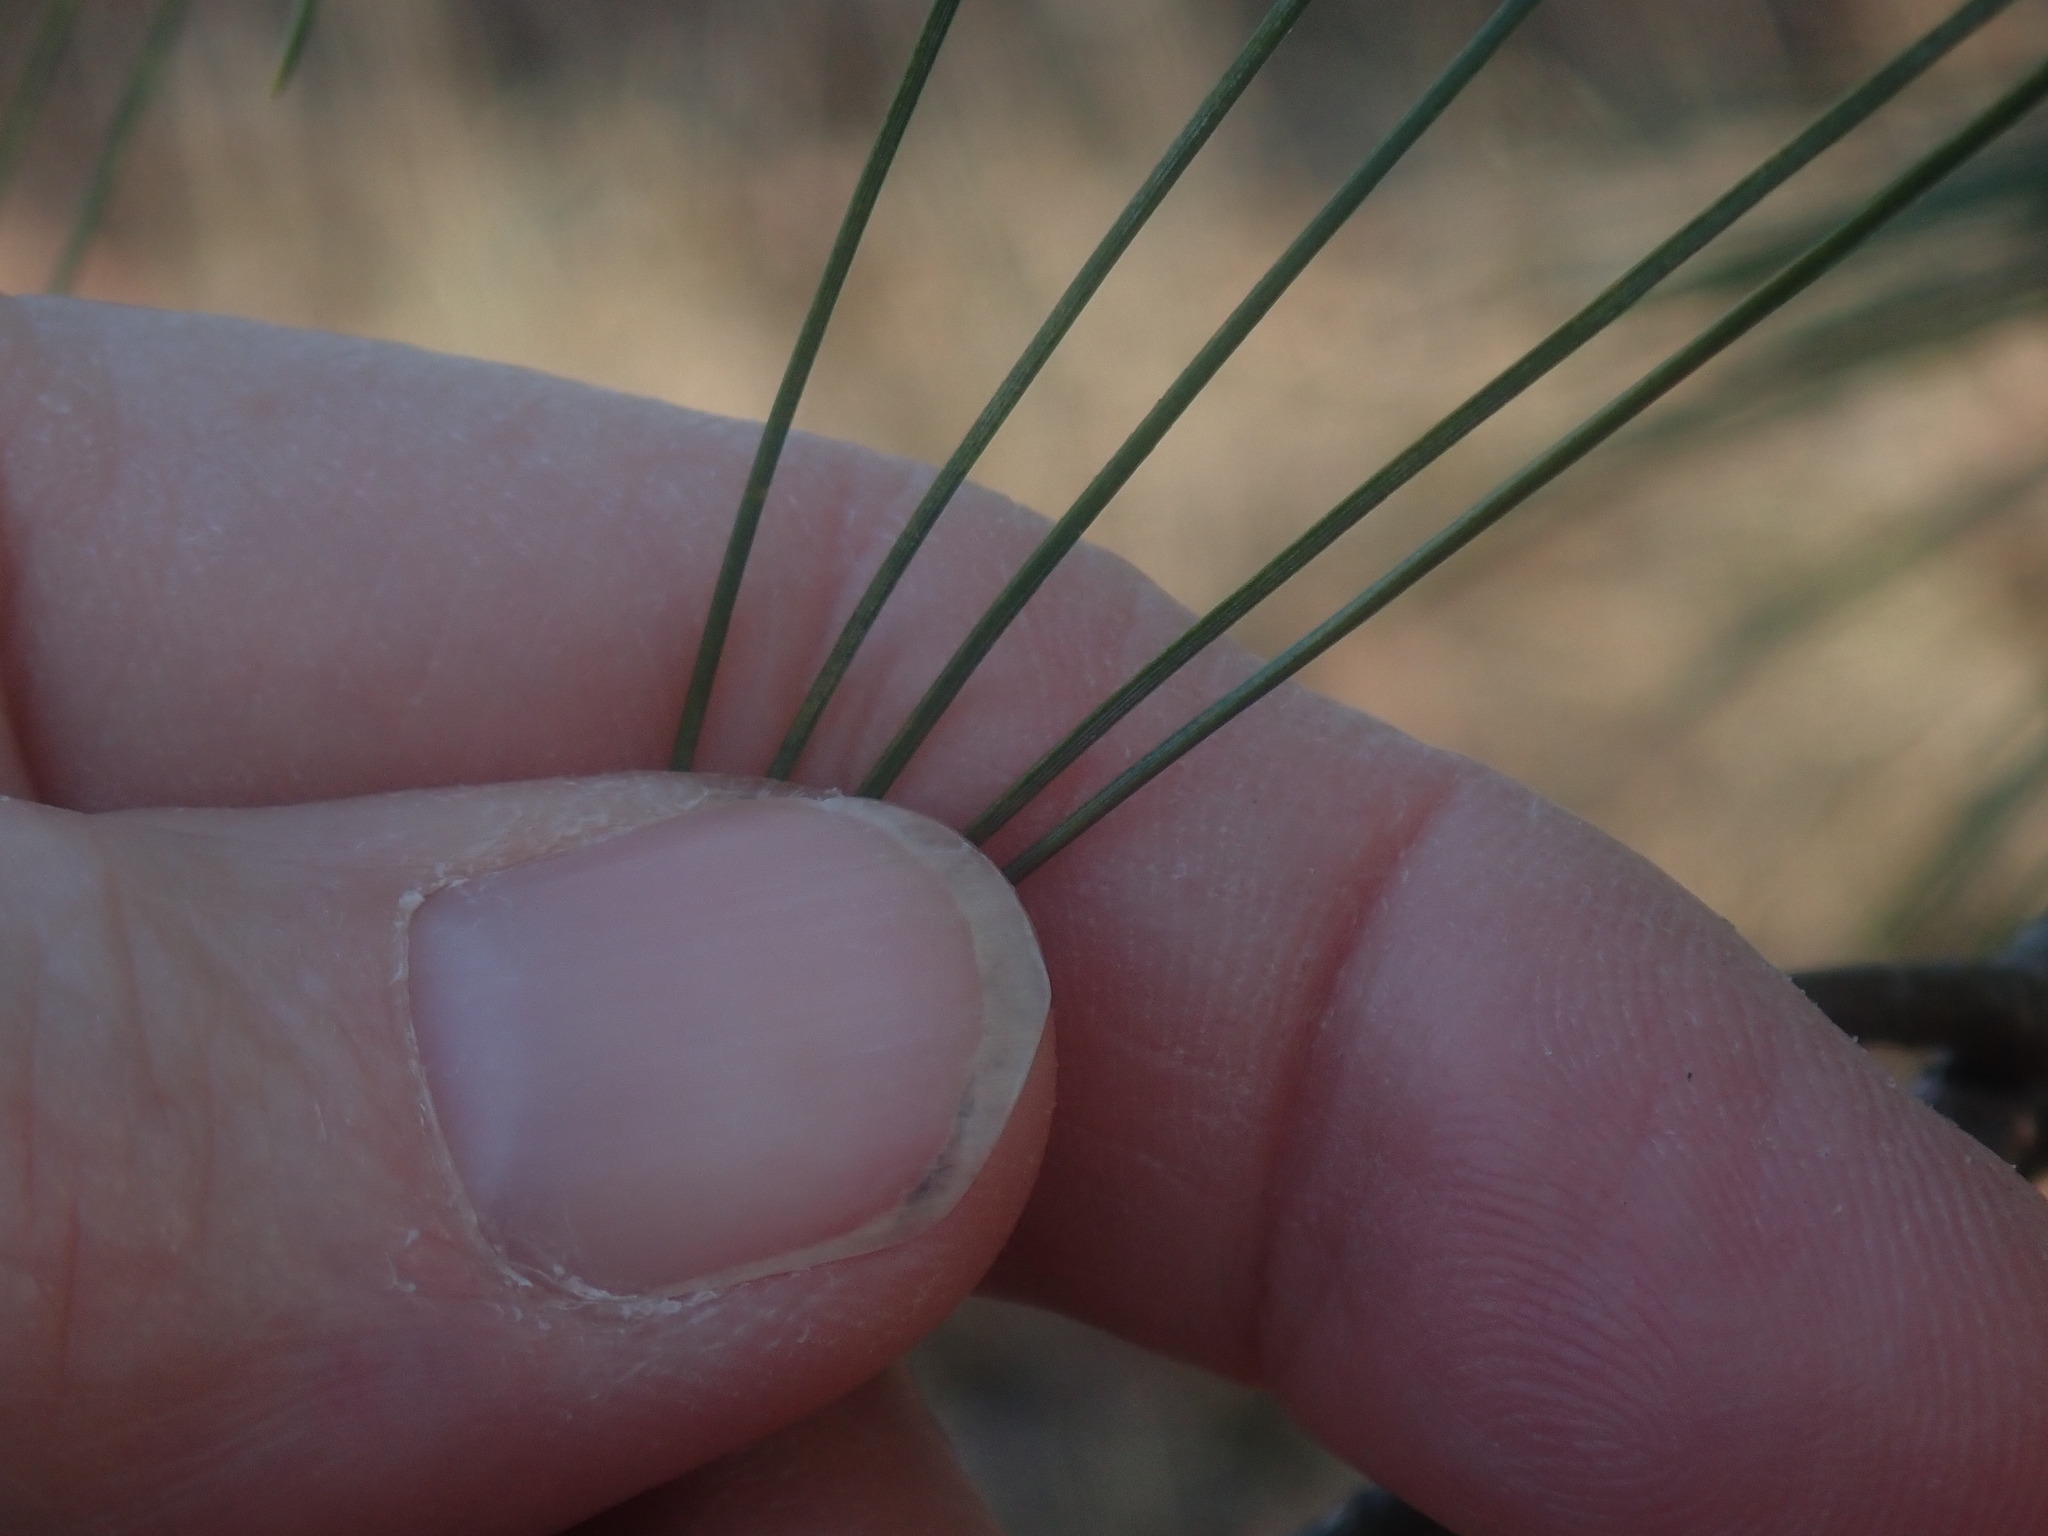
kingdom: Plantae
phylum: Tracheophyta
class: Pinopsida
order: Pinales
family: Pinaceae
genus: Pinus
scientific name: Pinus strobus
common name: Weymouth pine
